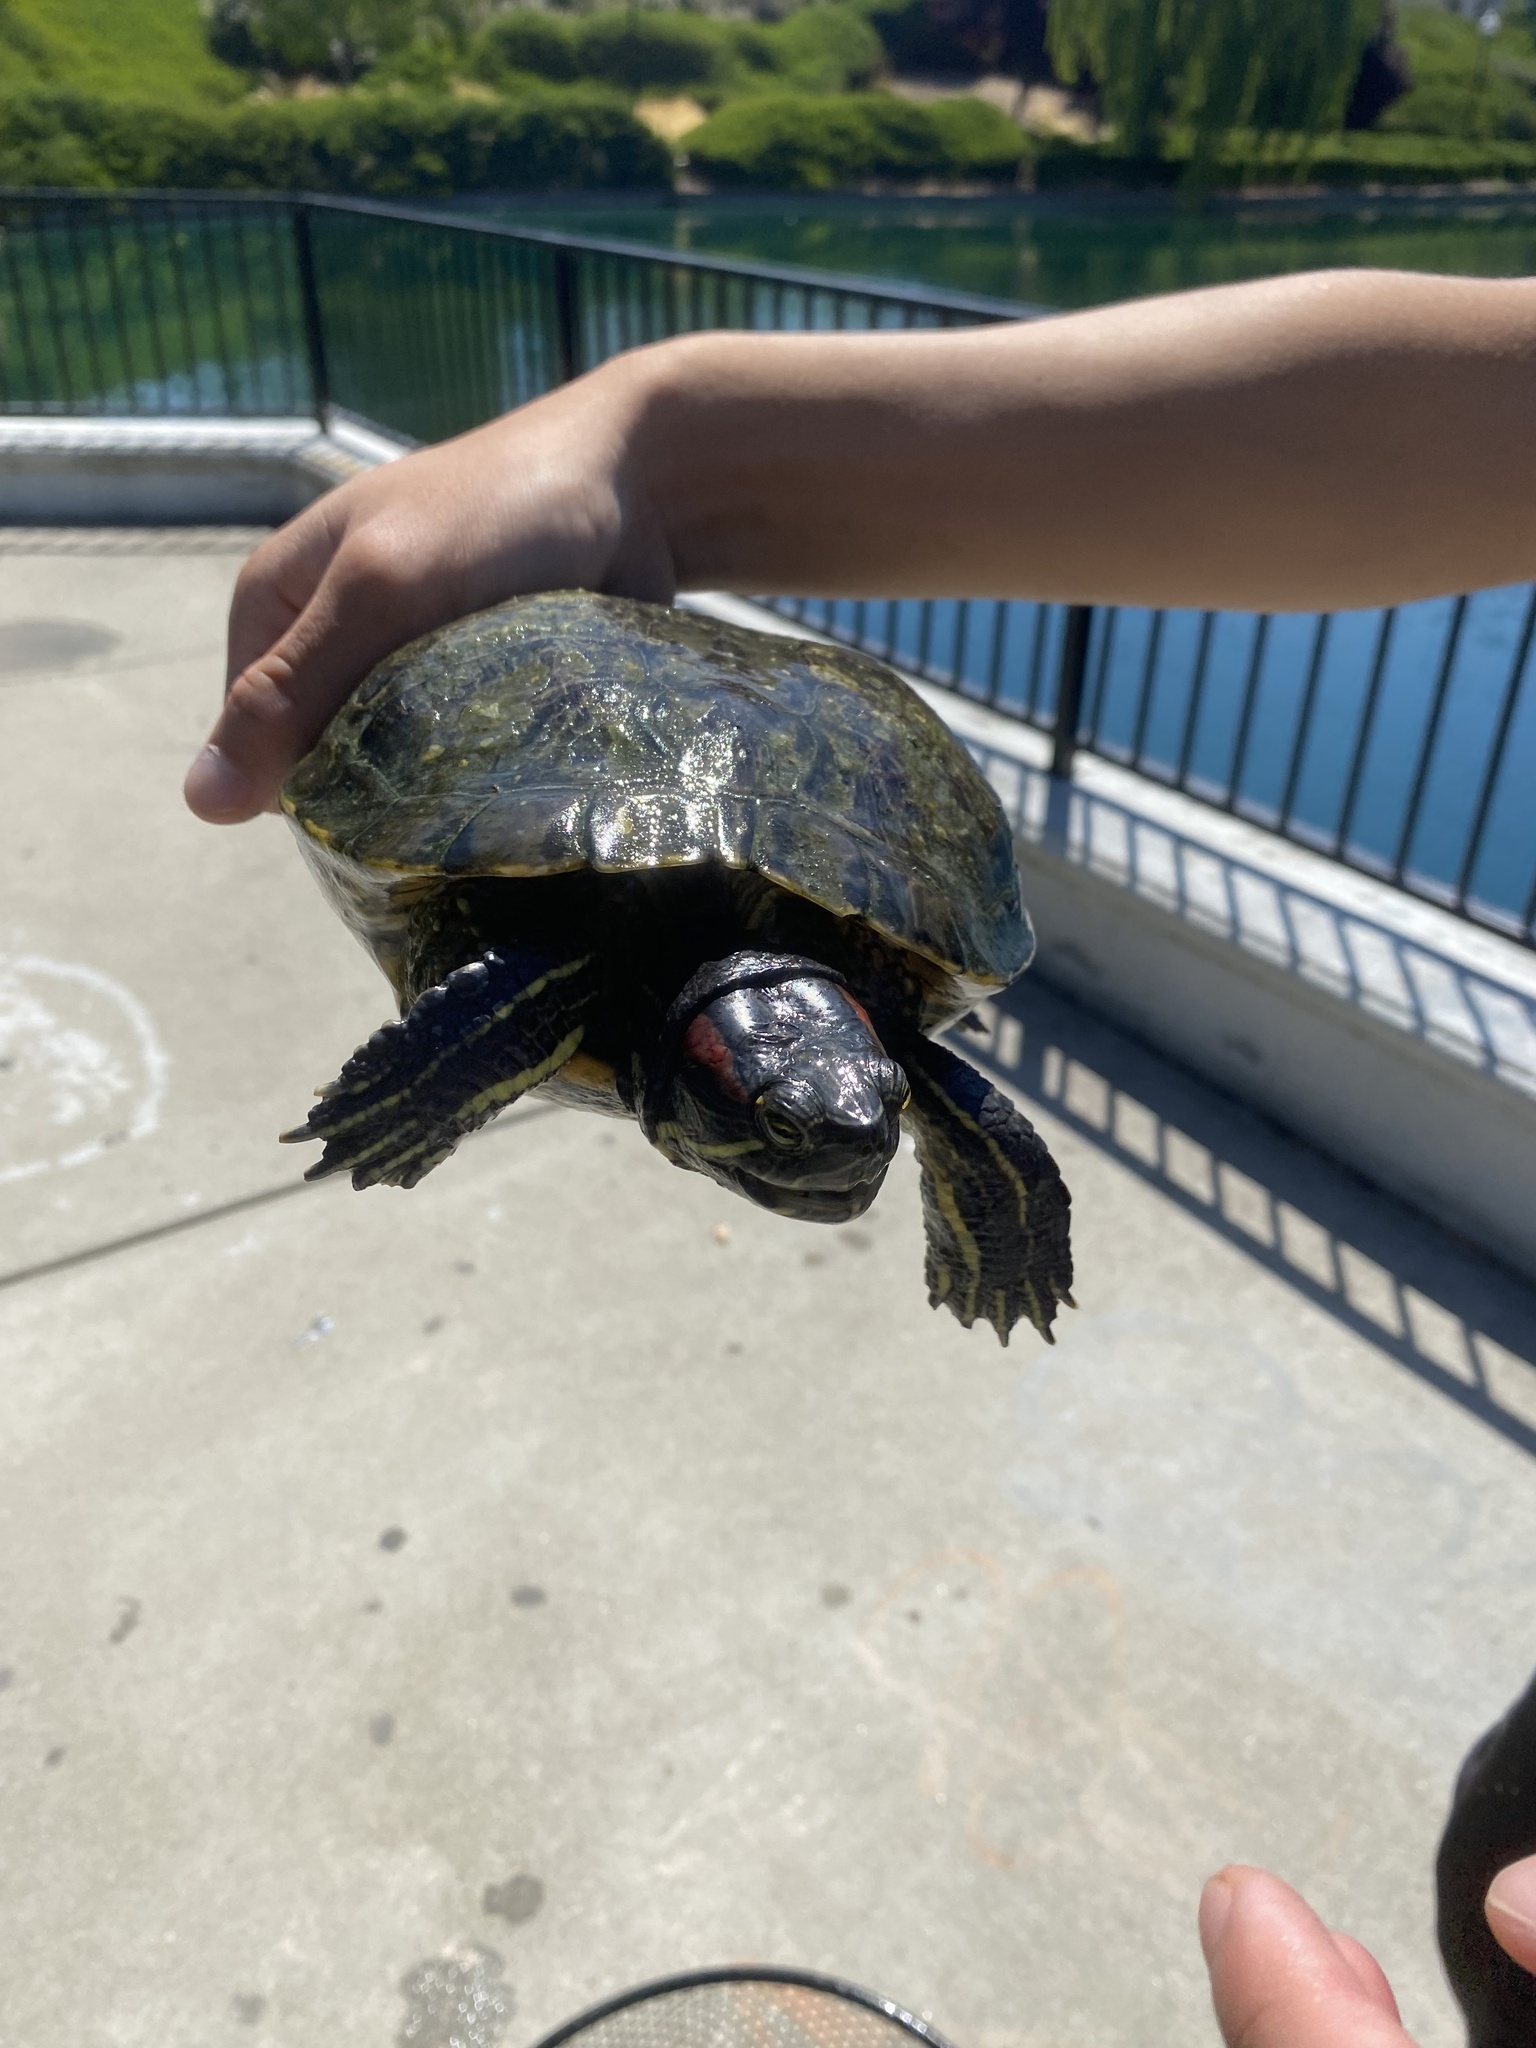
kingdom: Animalia
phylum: Chordata
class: Testudines
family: Emydidae
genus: Trachemys
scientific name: Trachemys scripta
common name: Slider
